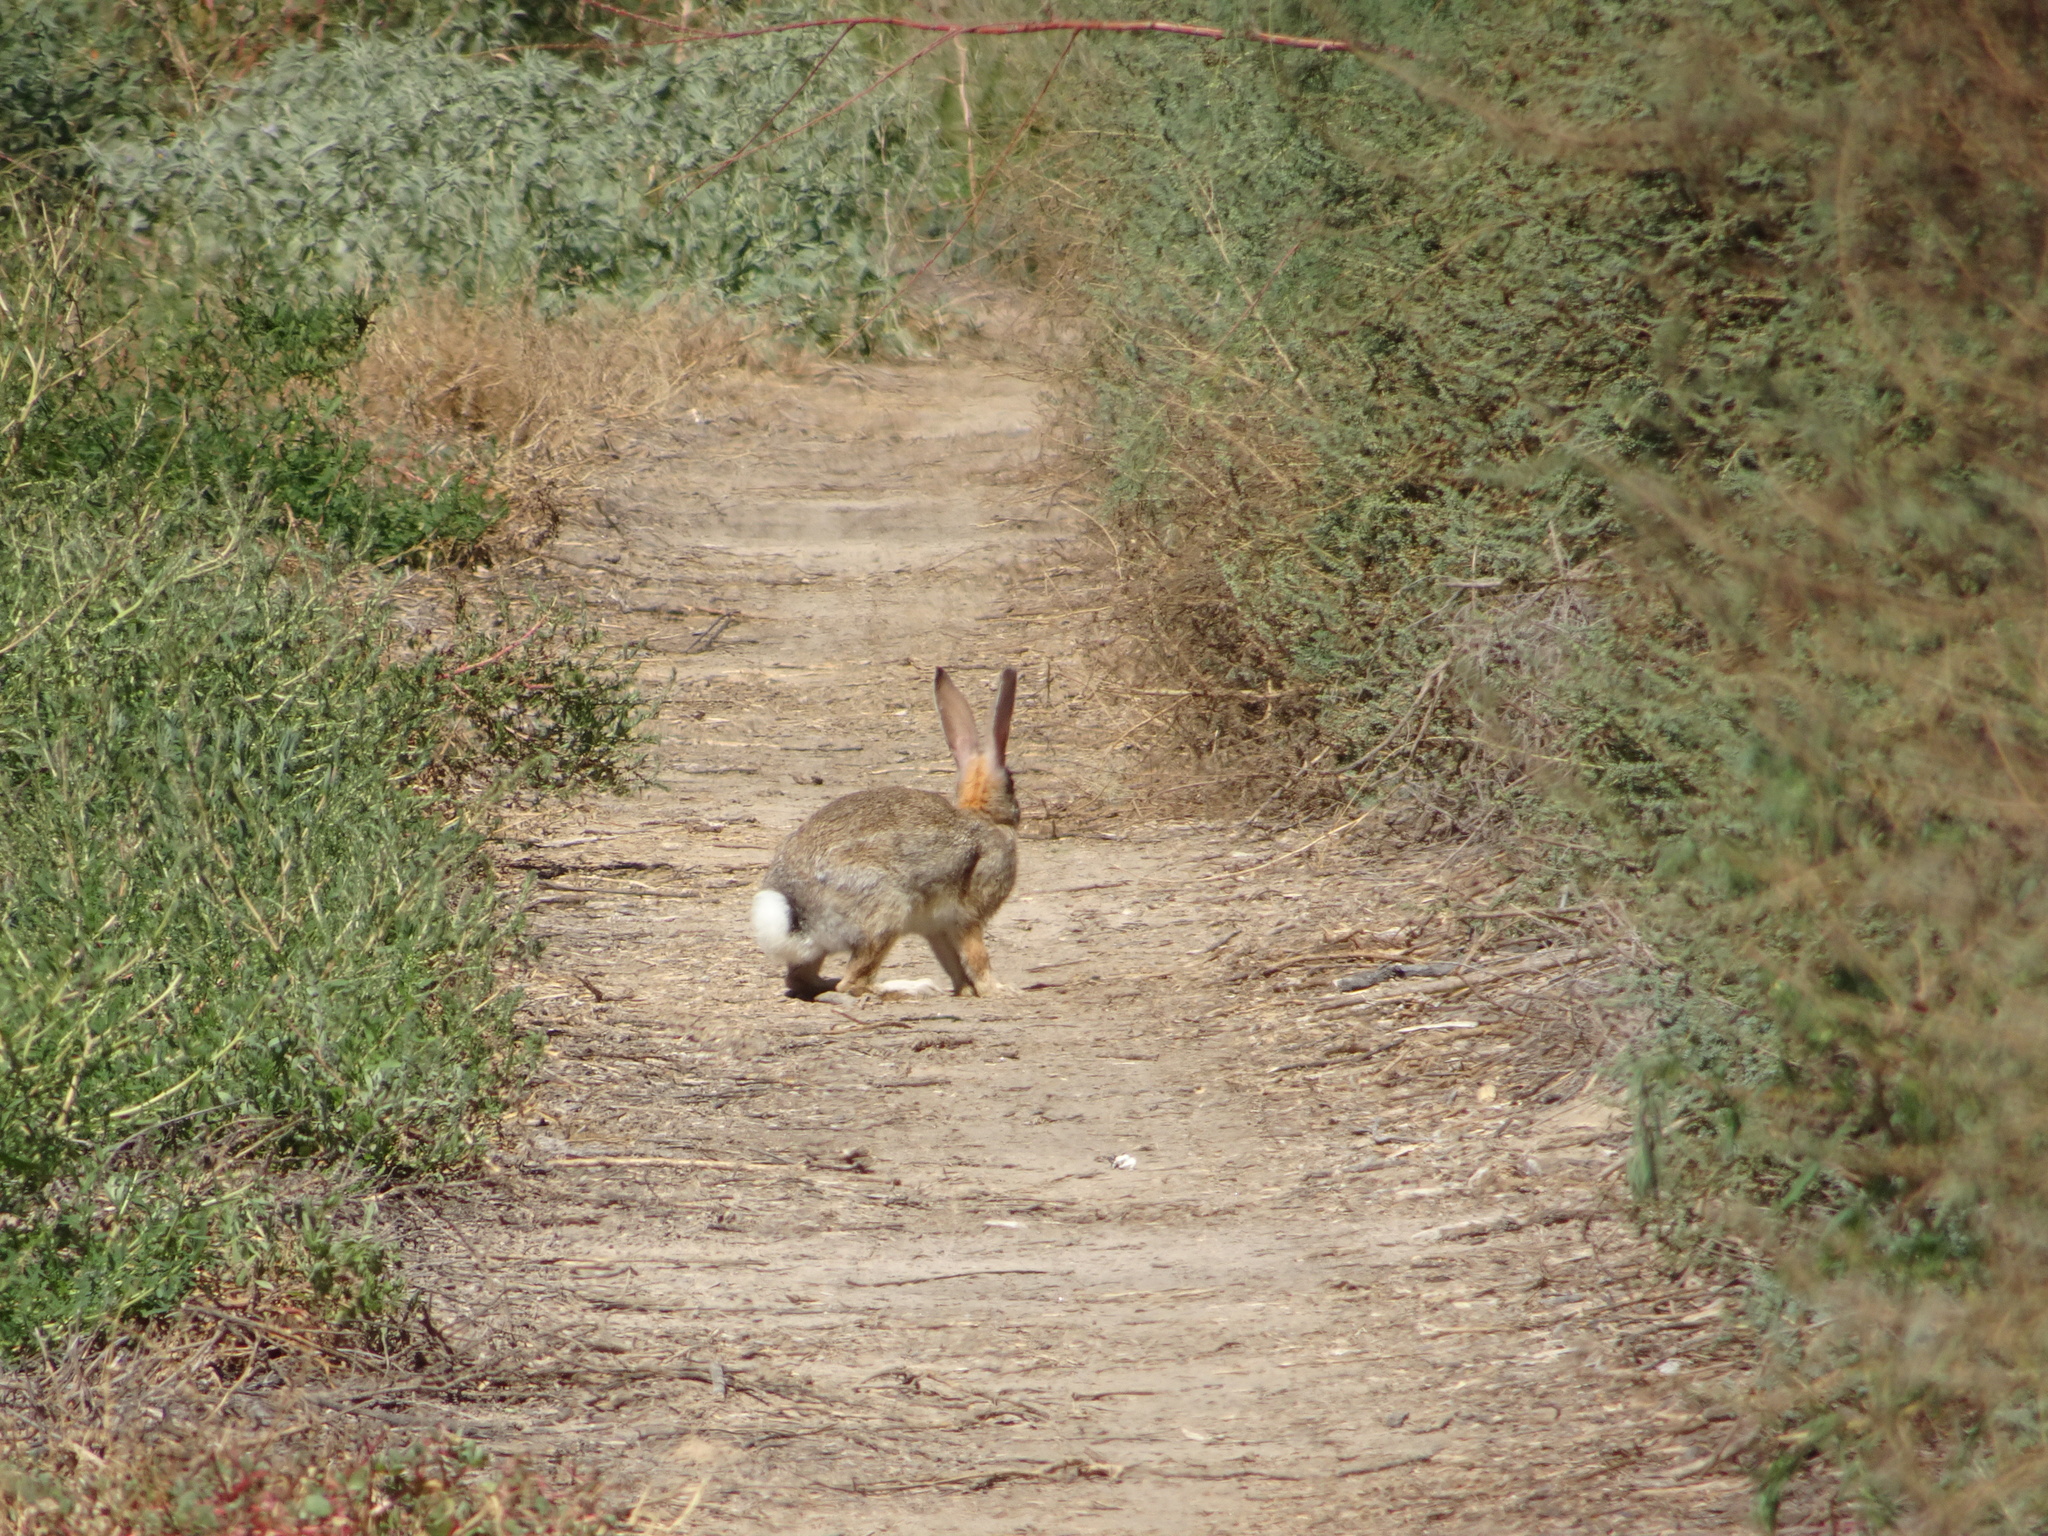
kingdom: Animalia
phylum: Chordata
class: Mammalia
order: Lagomorpha
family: Leporidae
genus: Sylvilagus
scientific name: Sylvilagus audubonii
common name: Desert cottontail
